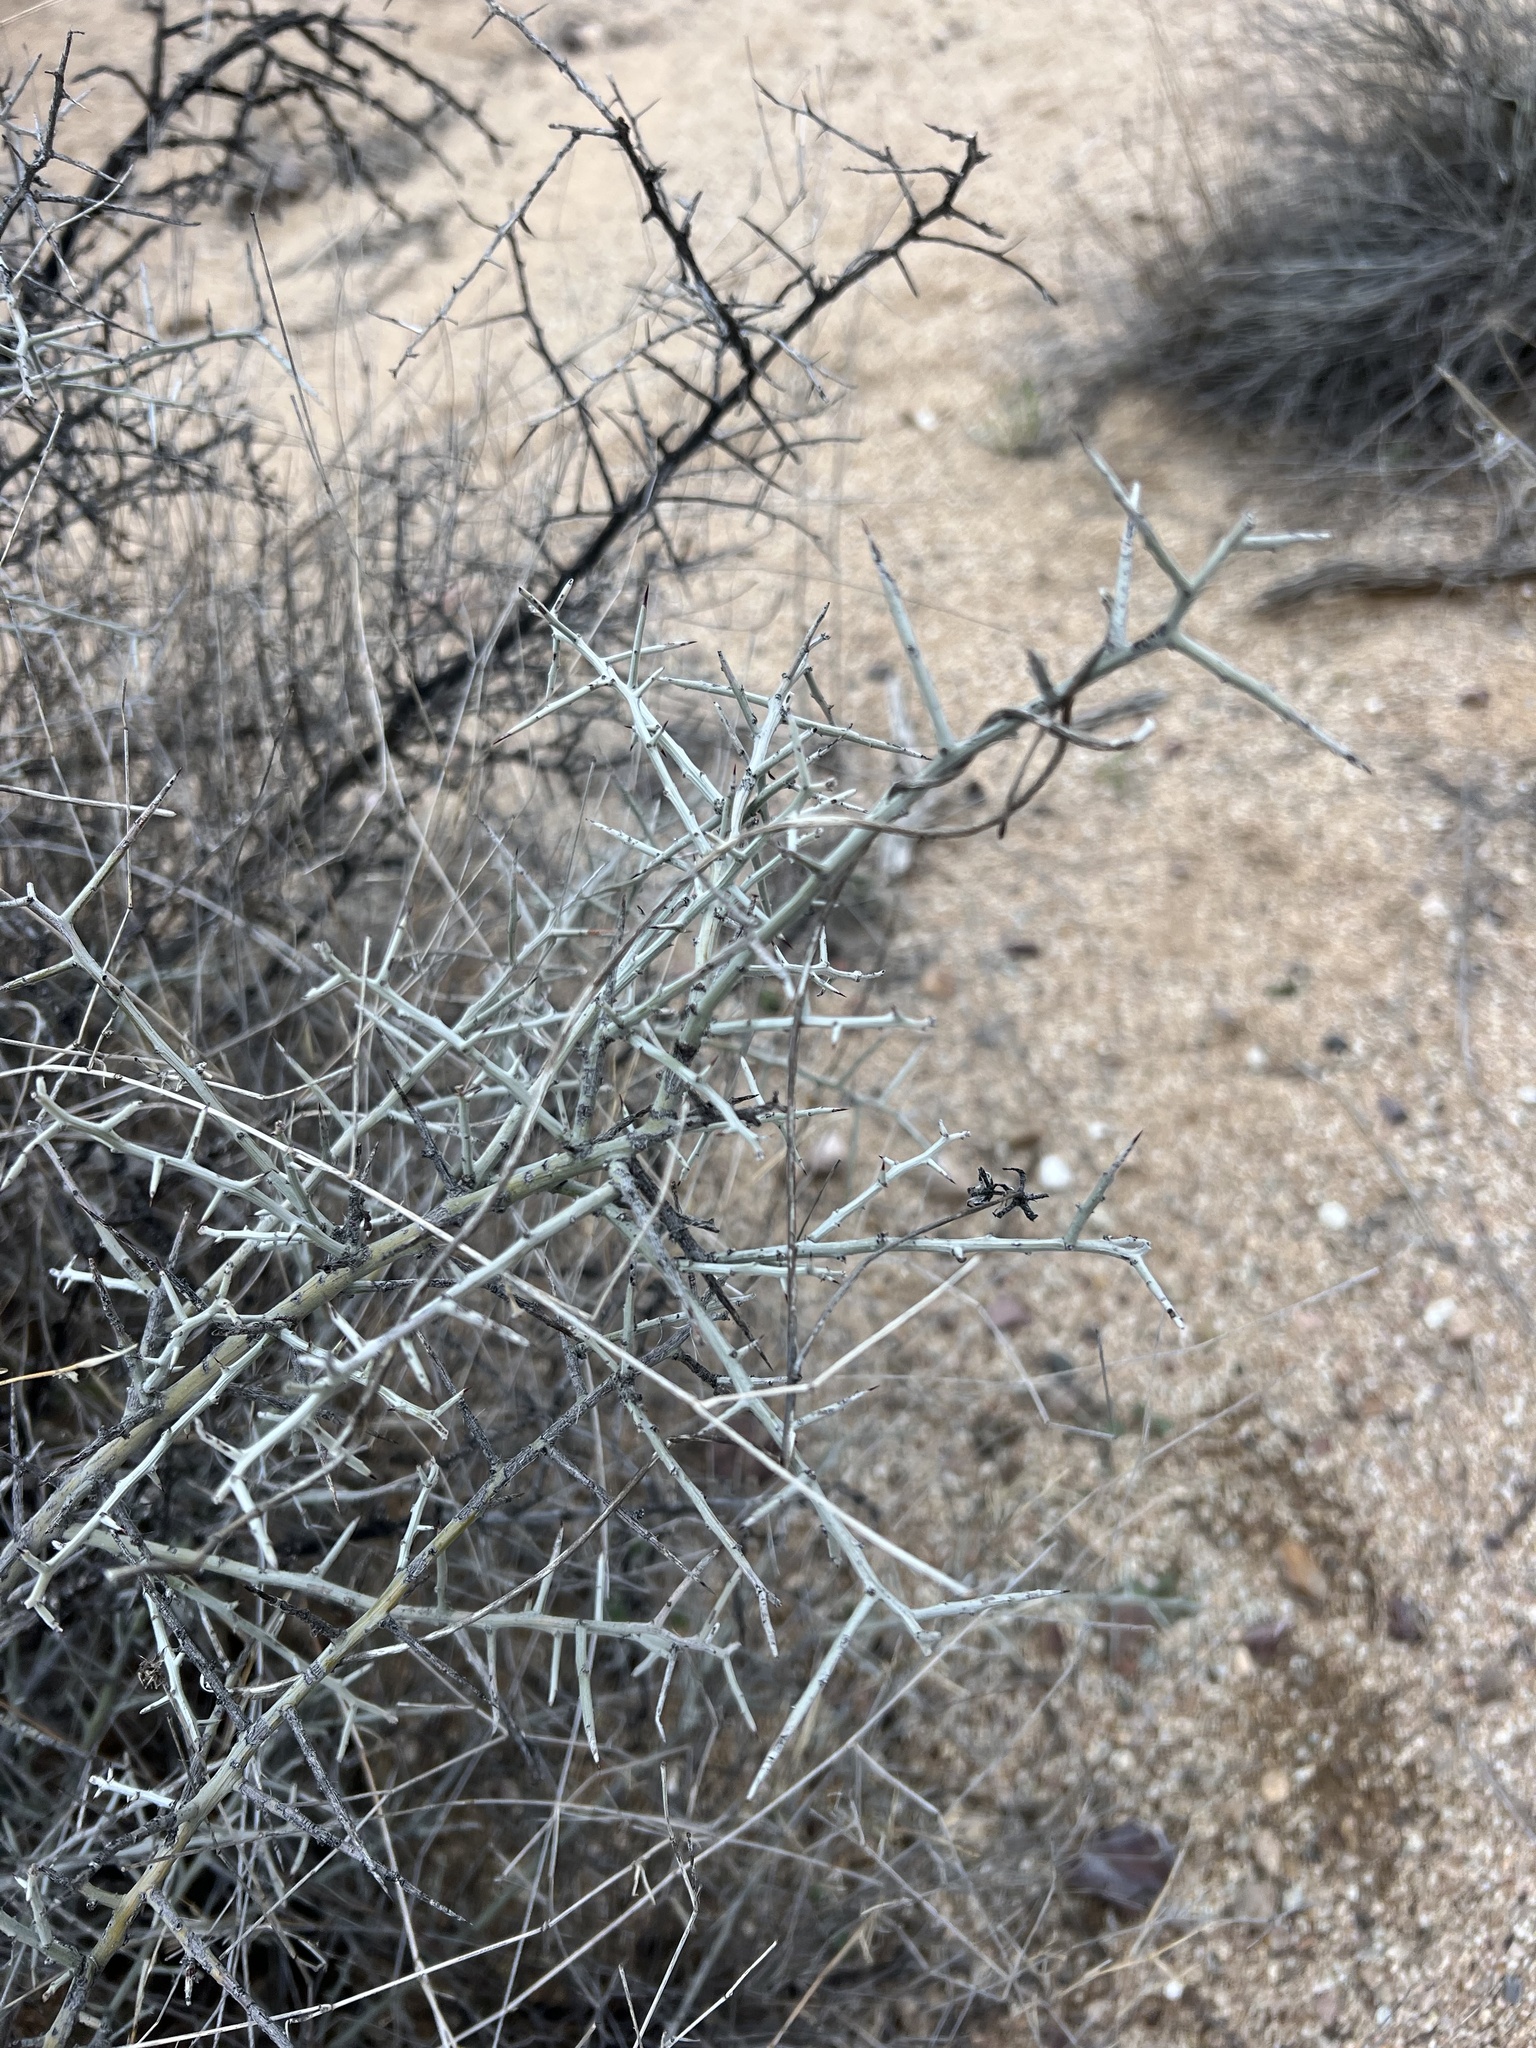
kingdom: Plantae
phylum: Tracheophyta
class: Magnoliopsida
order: Rosales
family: Rhamnaceae
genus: Sarcomphalus
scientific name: Sarcomphalus obtusifolius
